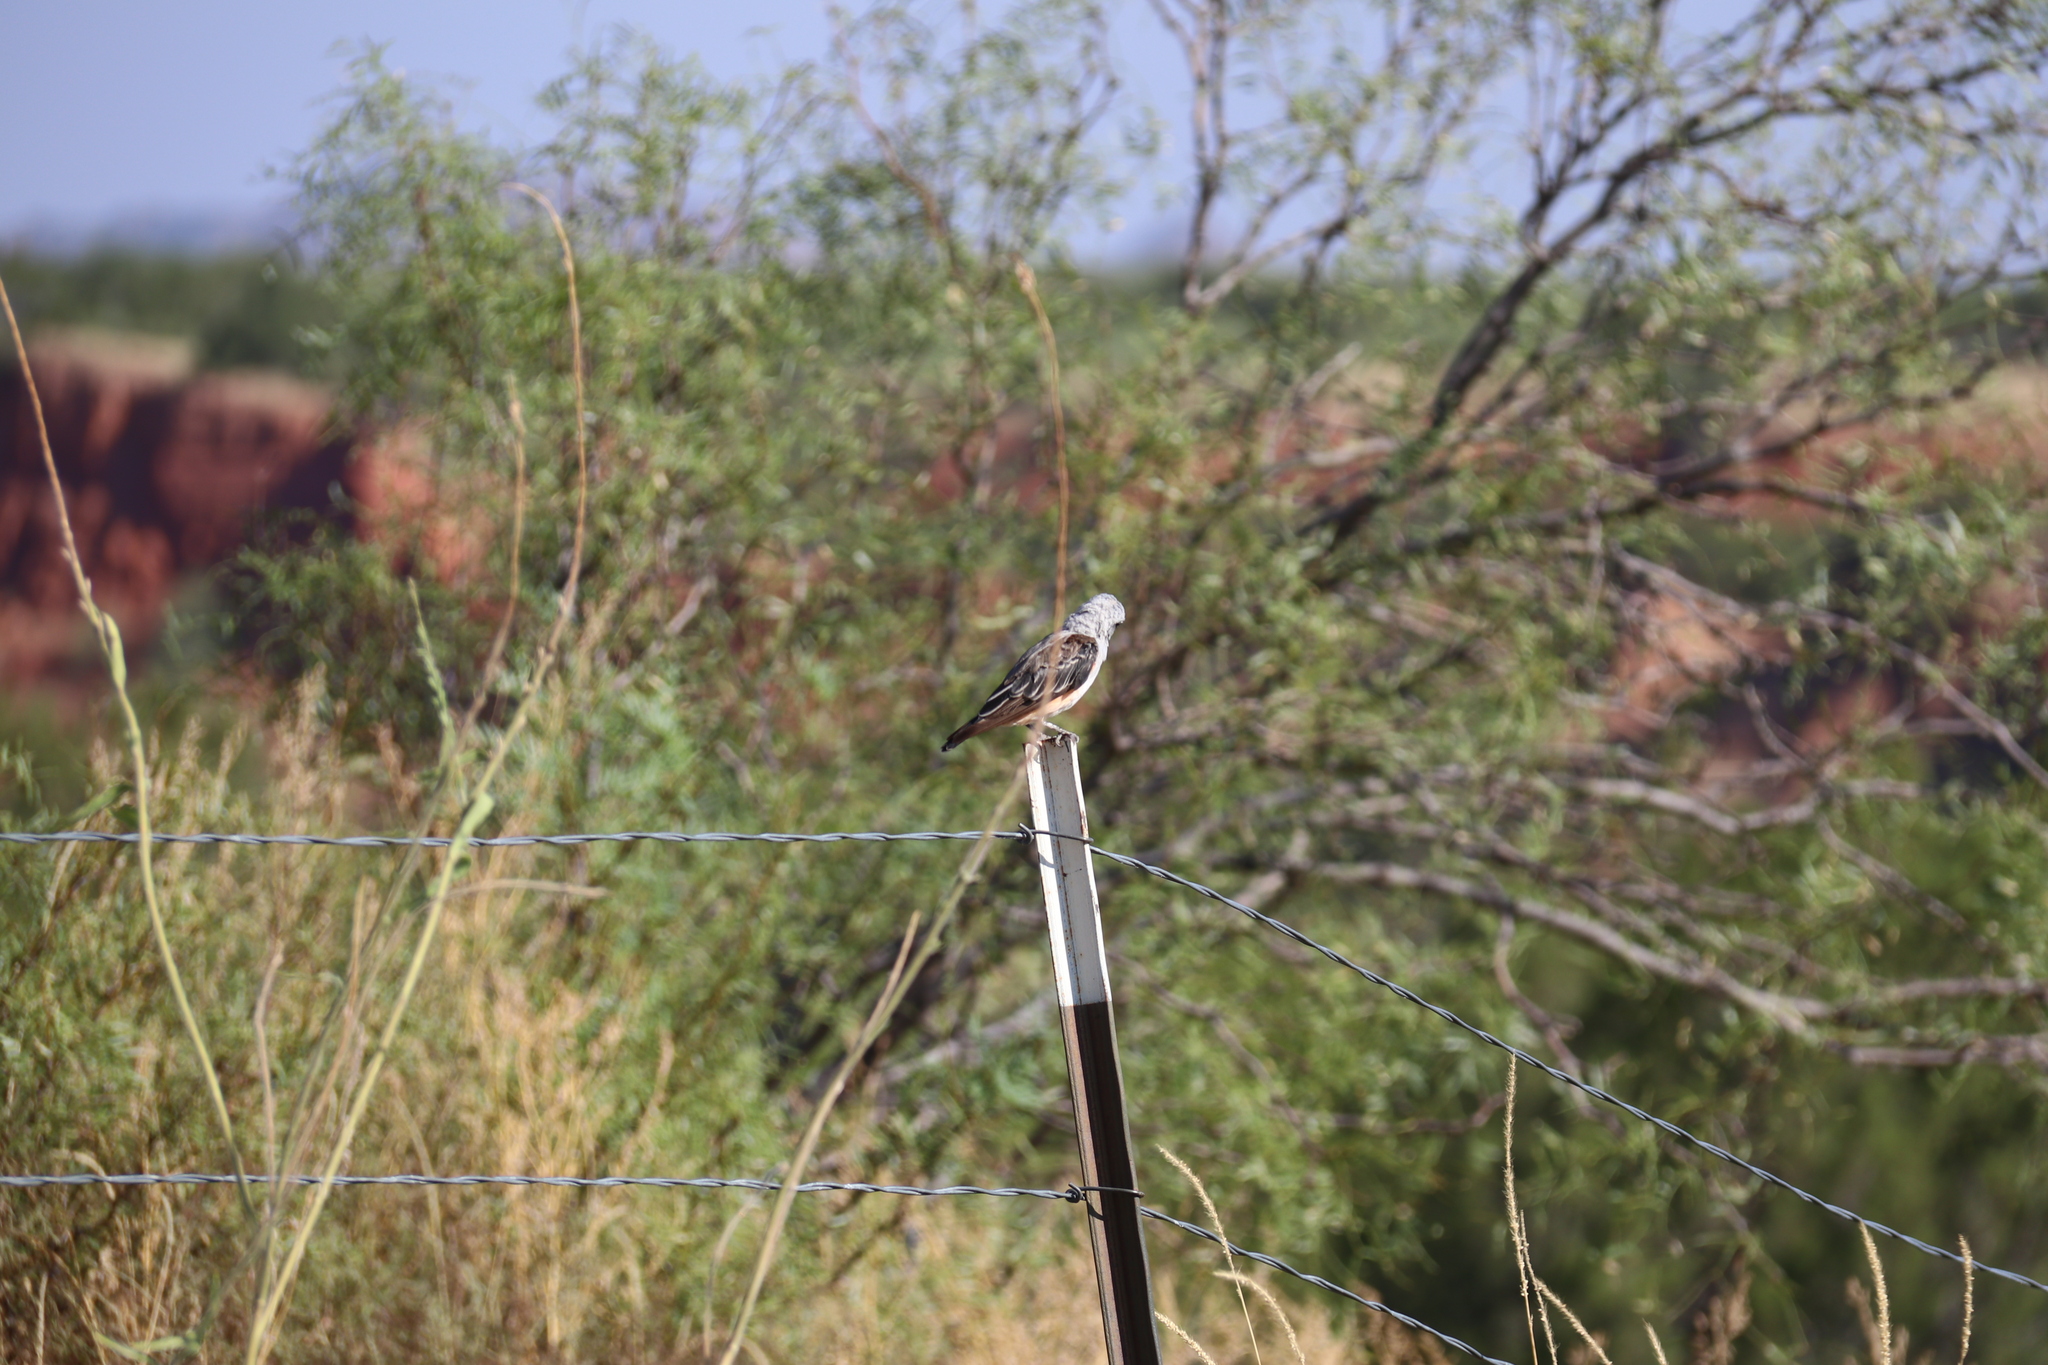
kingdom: Animalia
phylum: Chordata
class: Aves
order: Passeriformes
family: Tyrannidae
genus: Tyrannus
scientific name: Tyrannus forficatus
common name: Scissor-tailed flycatcher
